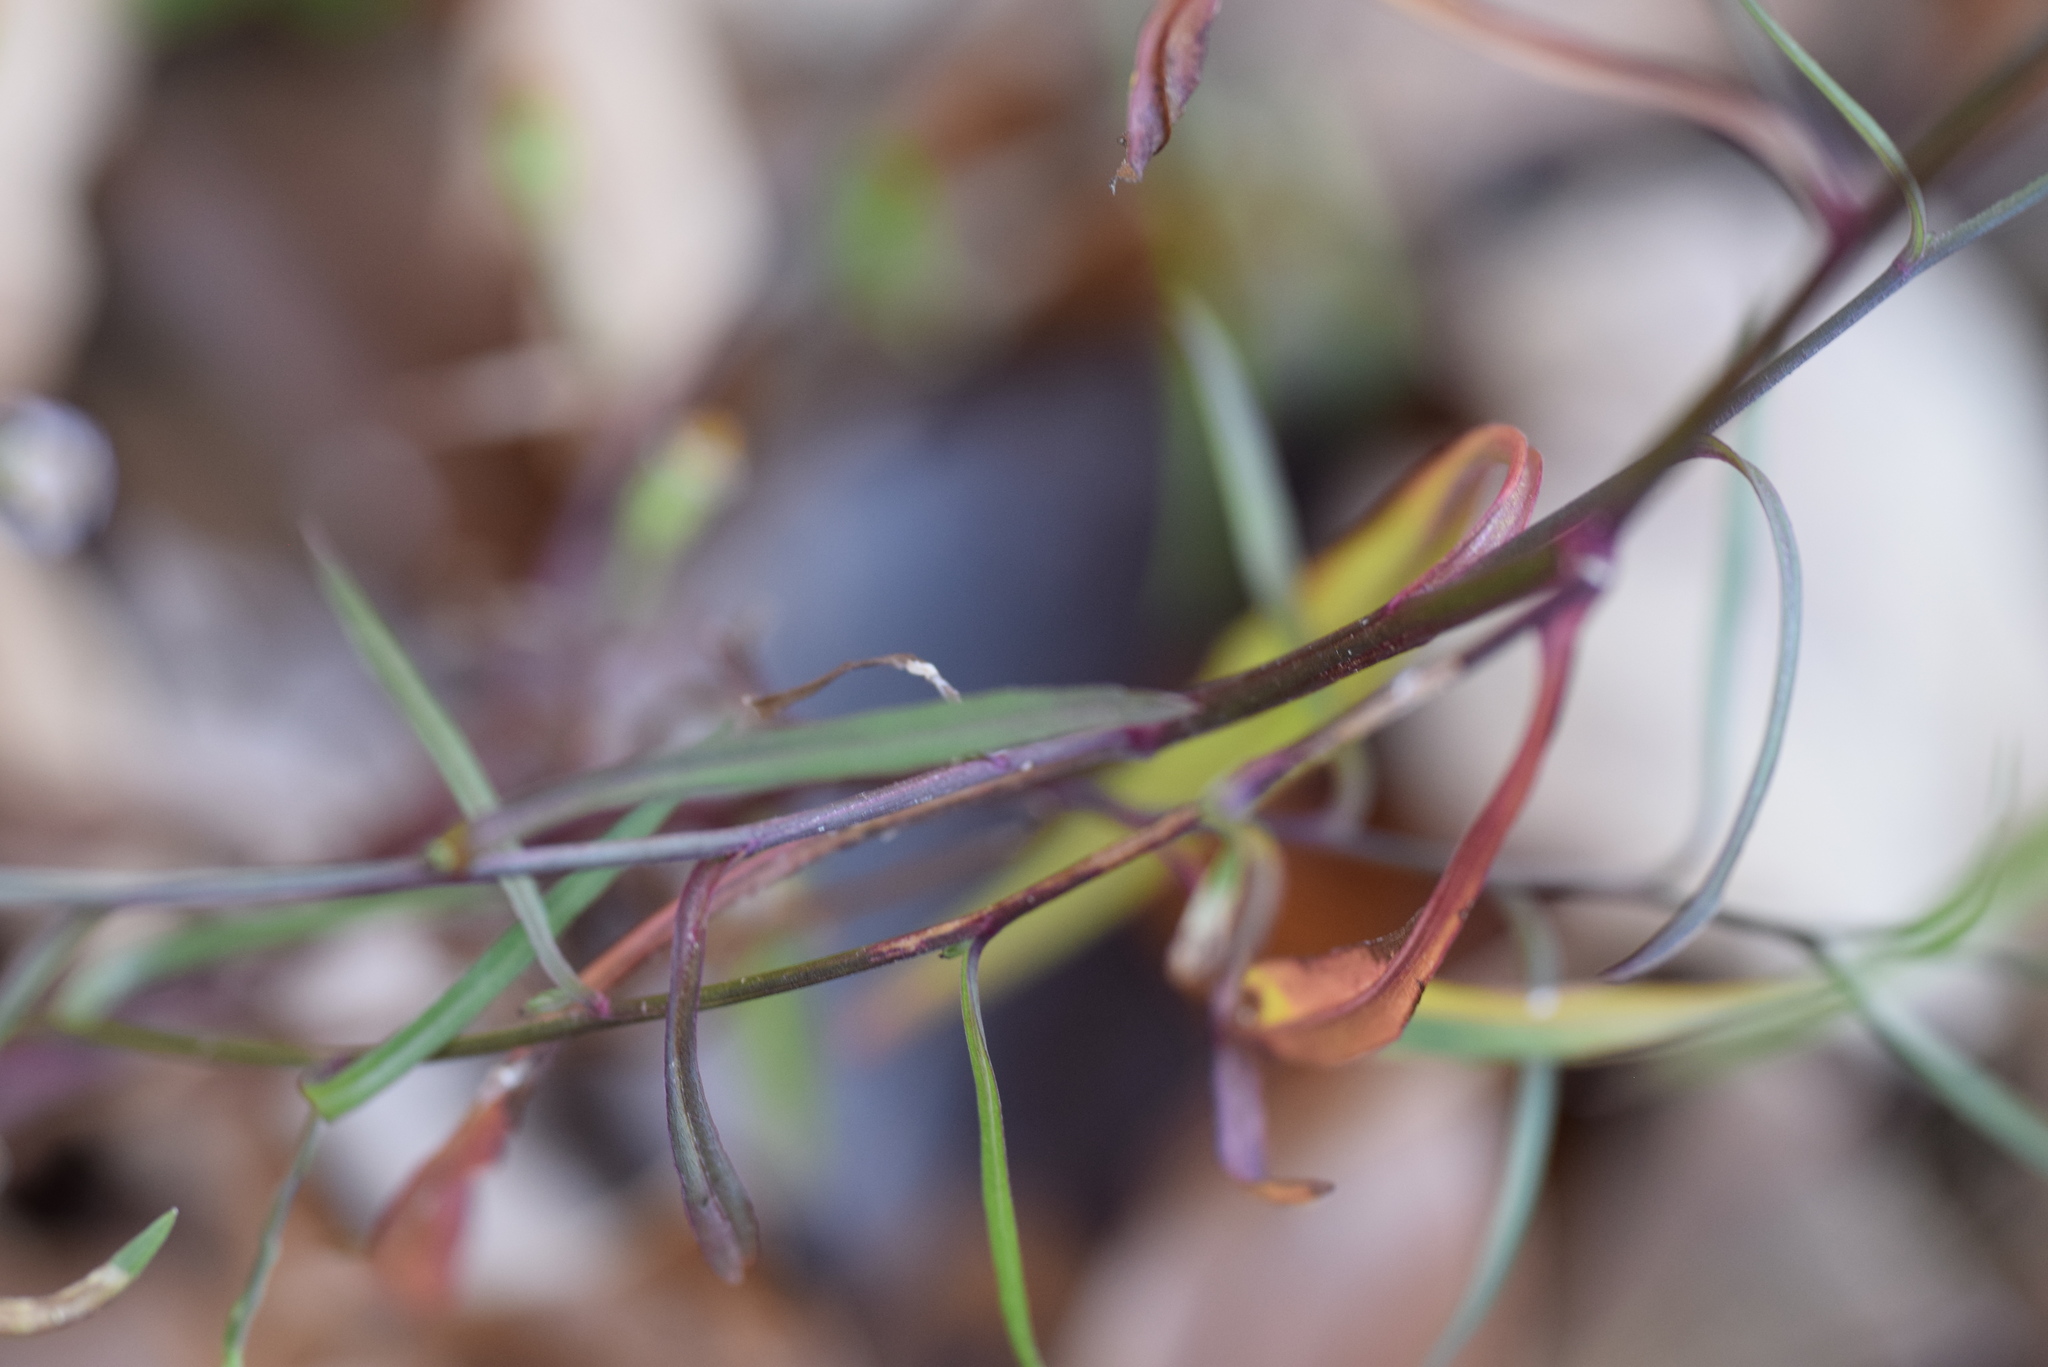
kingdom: Plantae
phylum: Tracheophyta
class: Magnoliopsida
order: Asterales
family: Asteraceae
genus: Symphyotrichum
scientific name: Symphyotrichum divaricatum
